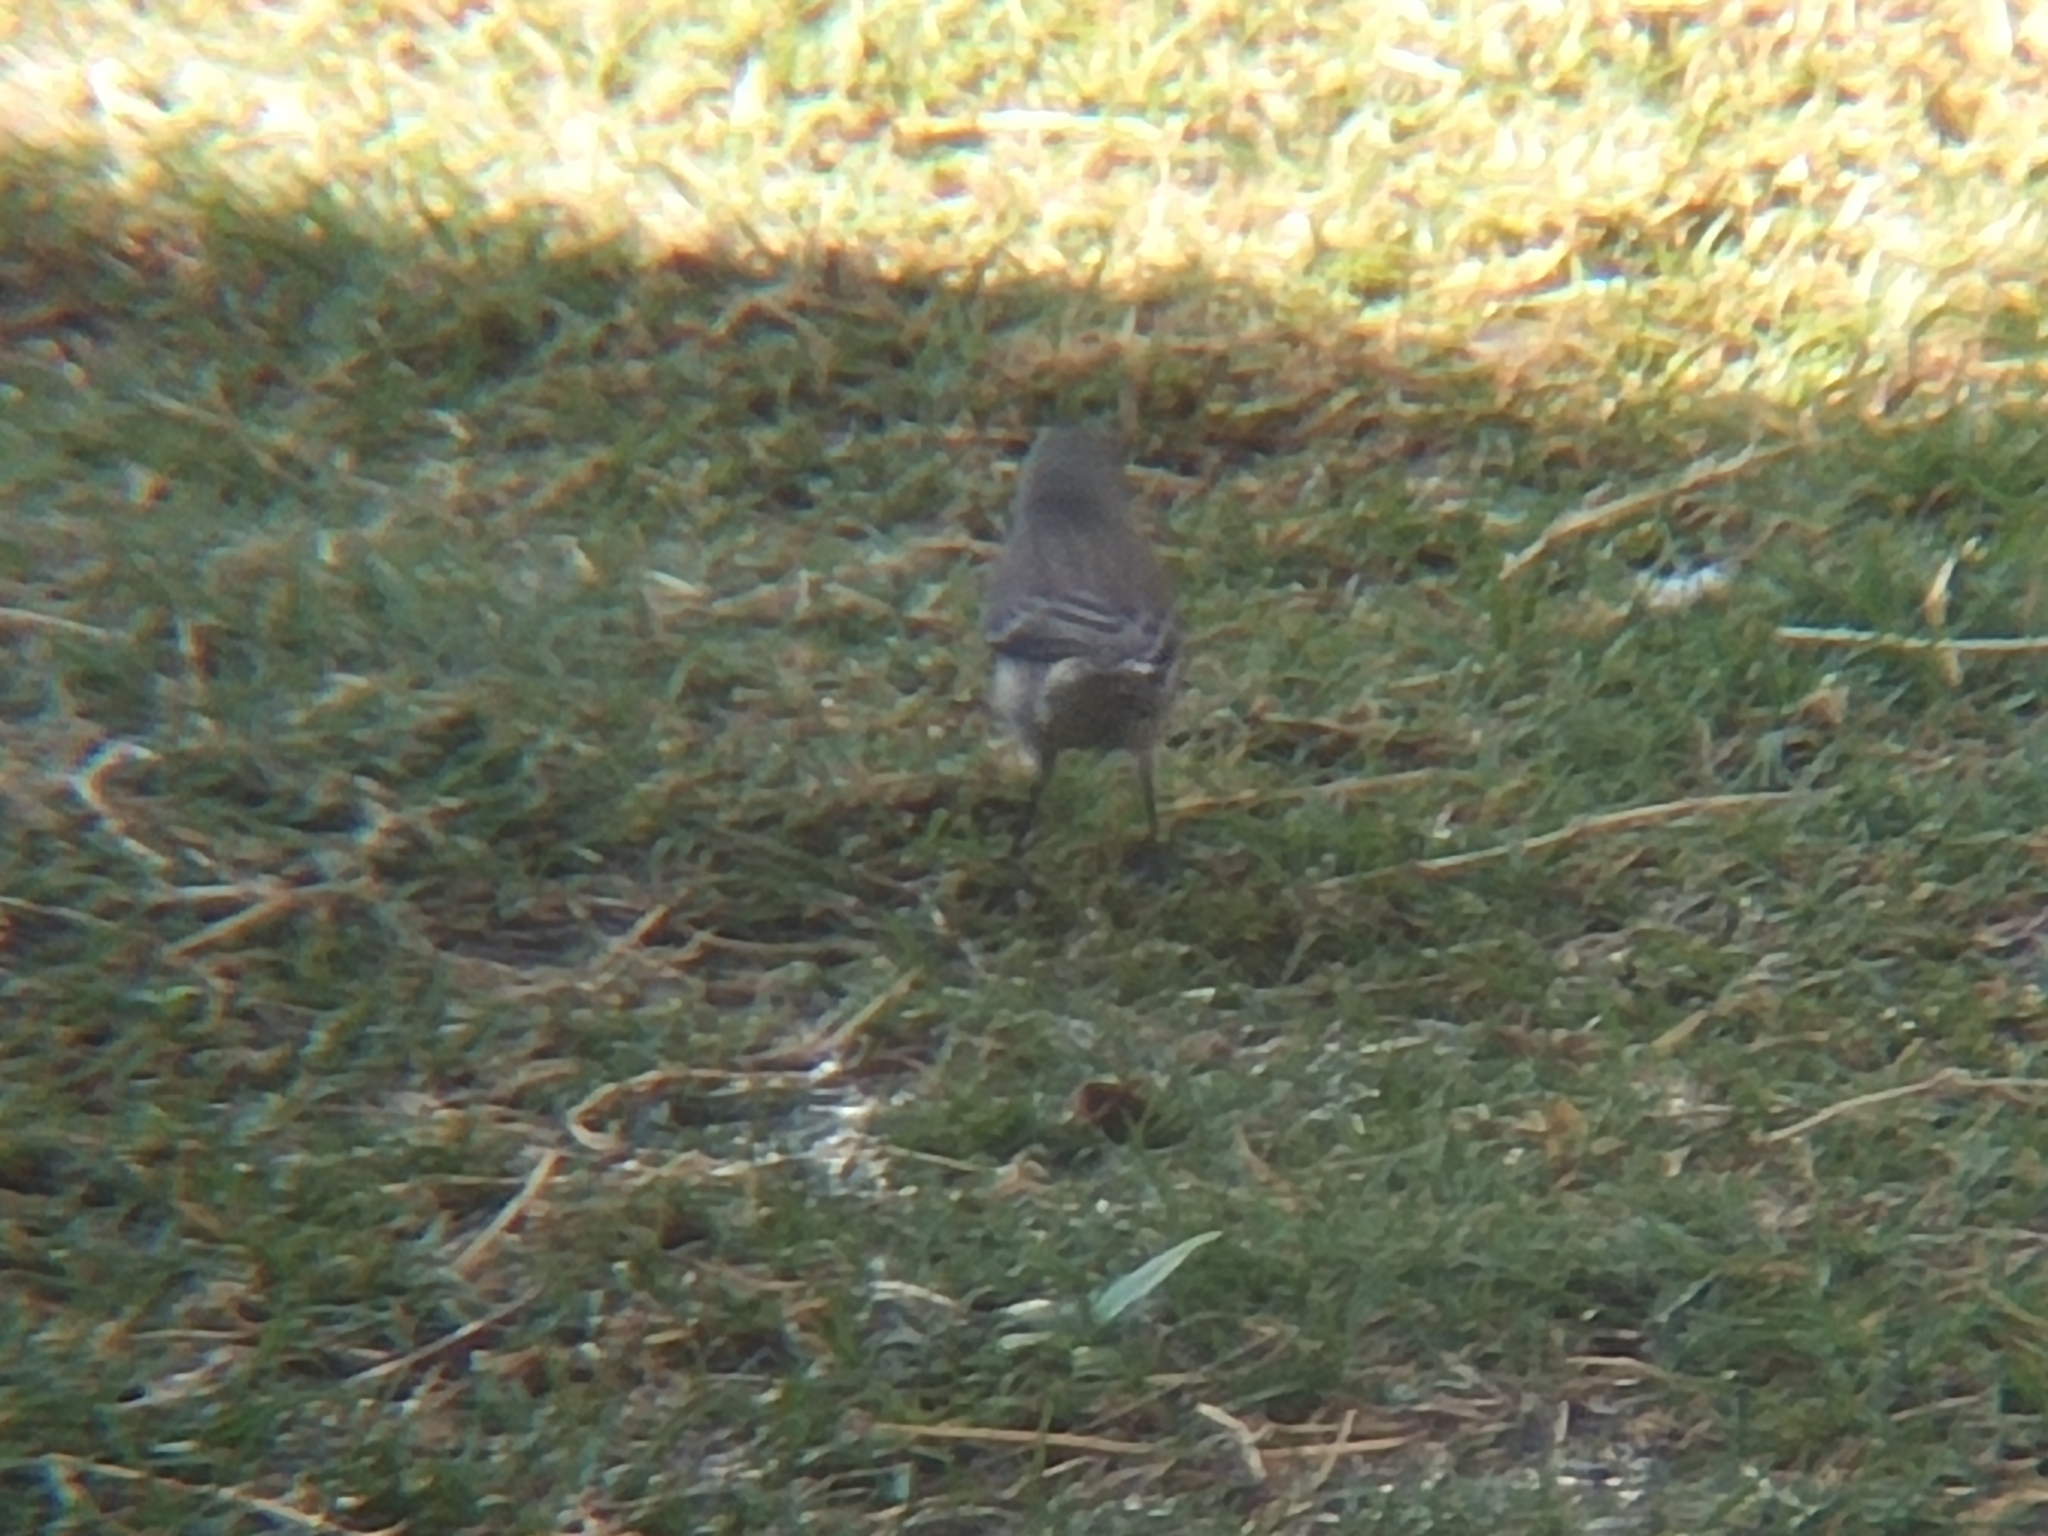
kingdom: Animalia
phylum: Chordata
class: Aves
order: Passeriformes
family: Parulidae
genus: Setophaga
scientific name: Setophaga coronata
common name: Myrtle warbler
